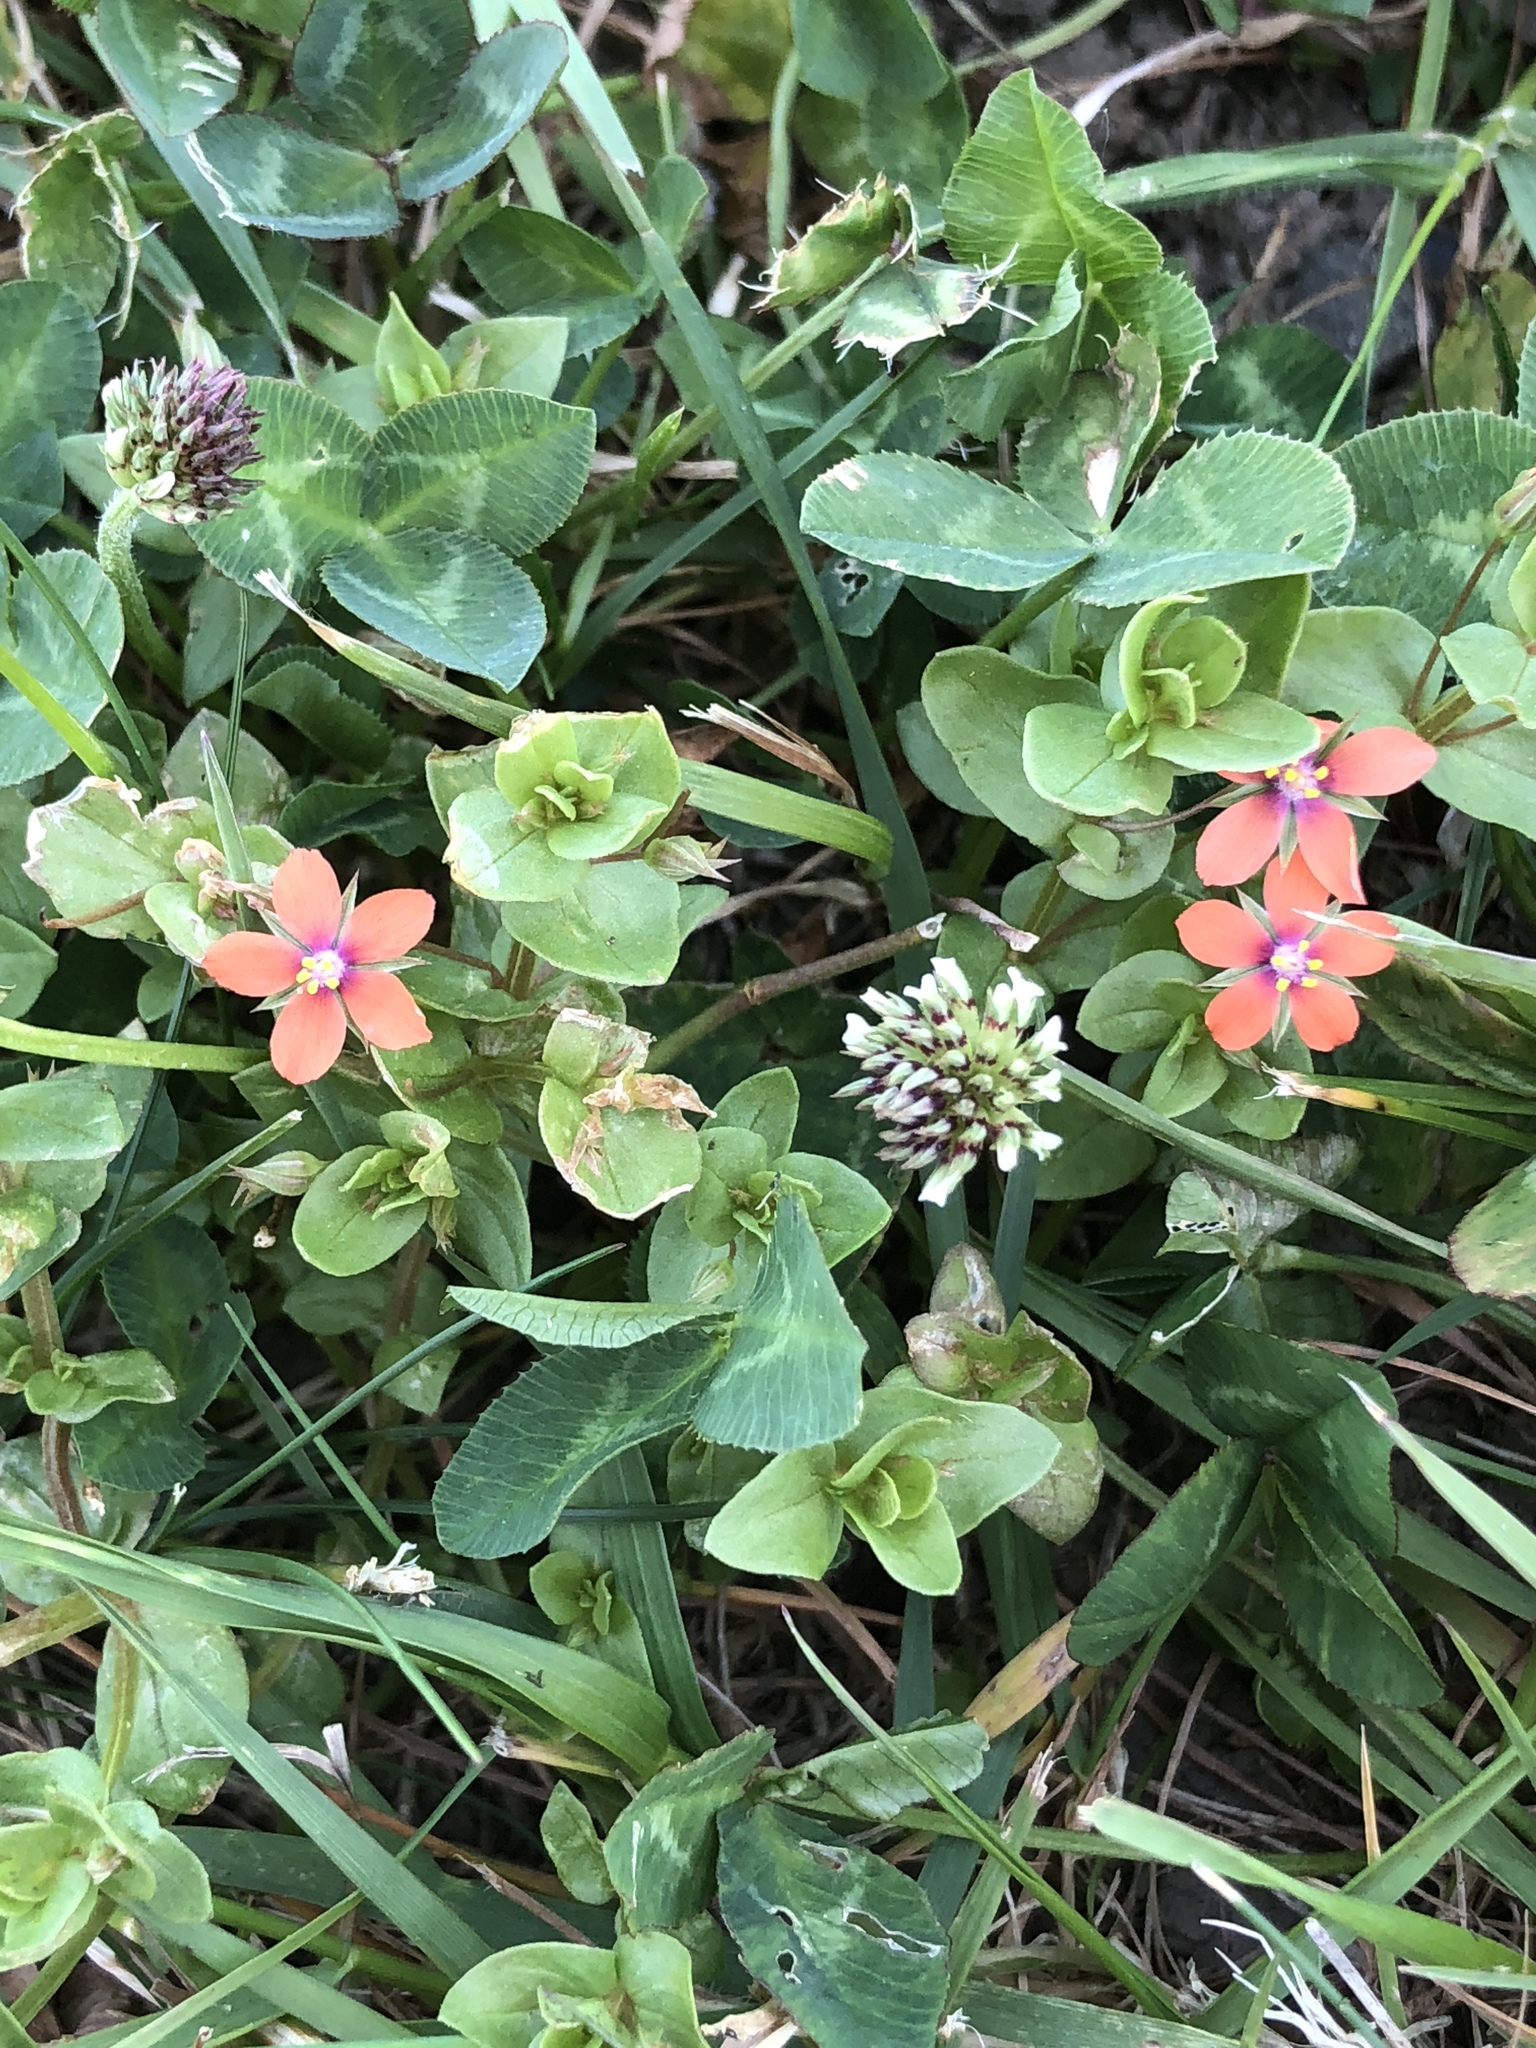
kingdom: Plantae
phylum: Tracheophyta
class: Magnoliopsida
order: Ericales
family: Primulaceae
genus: Lysimachia
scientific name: Lysimachia arvensis
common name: Scarlet pimpernel
